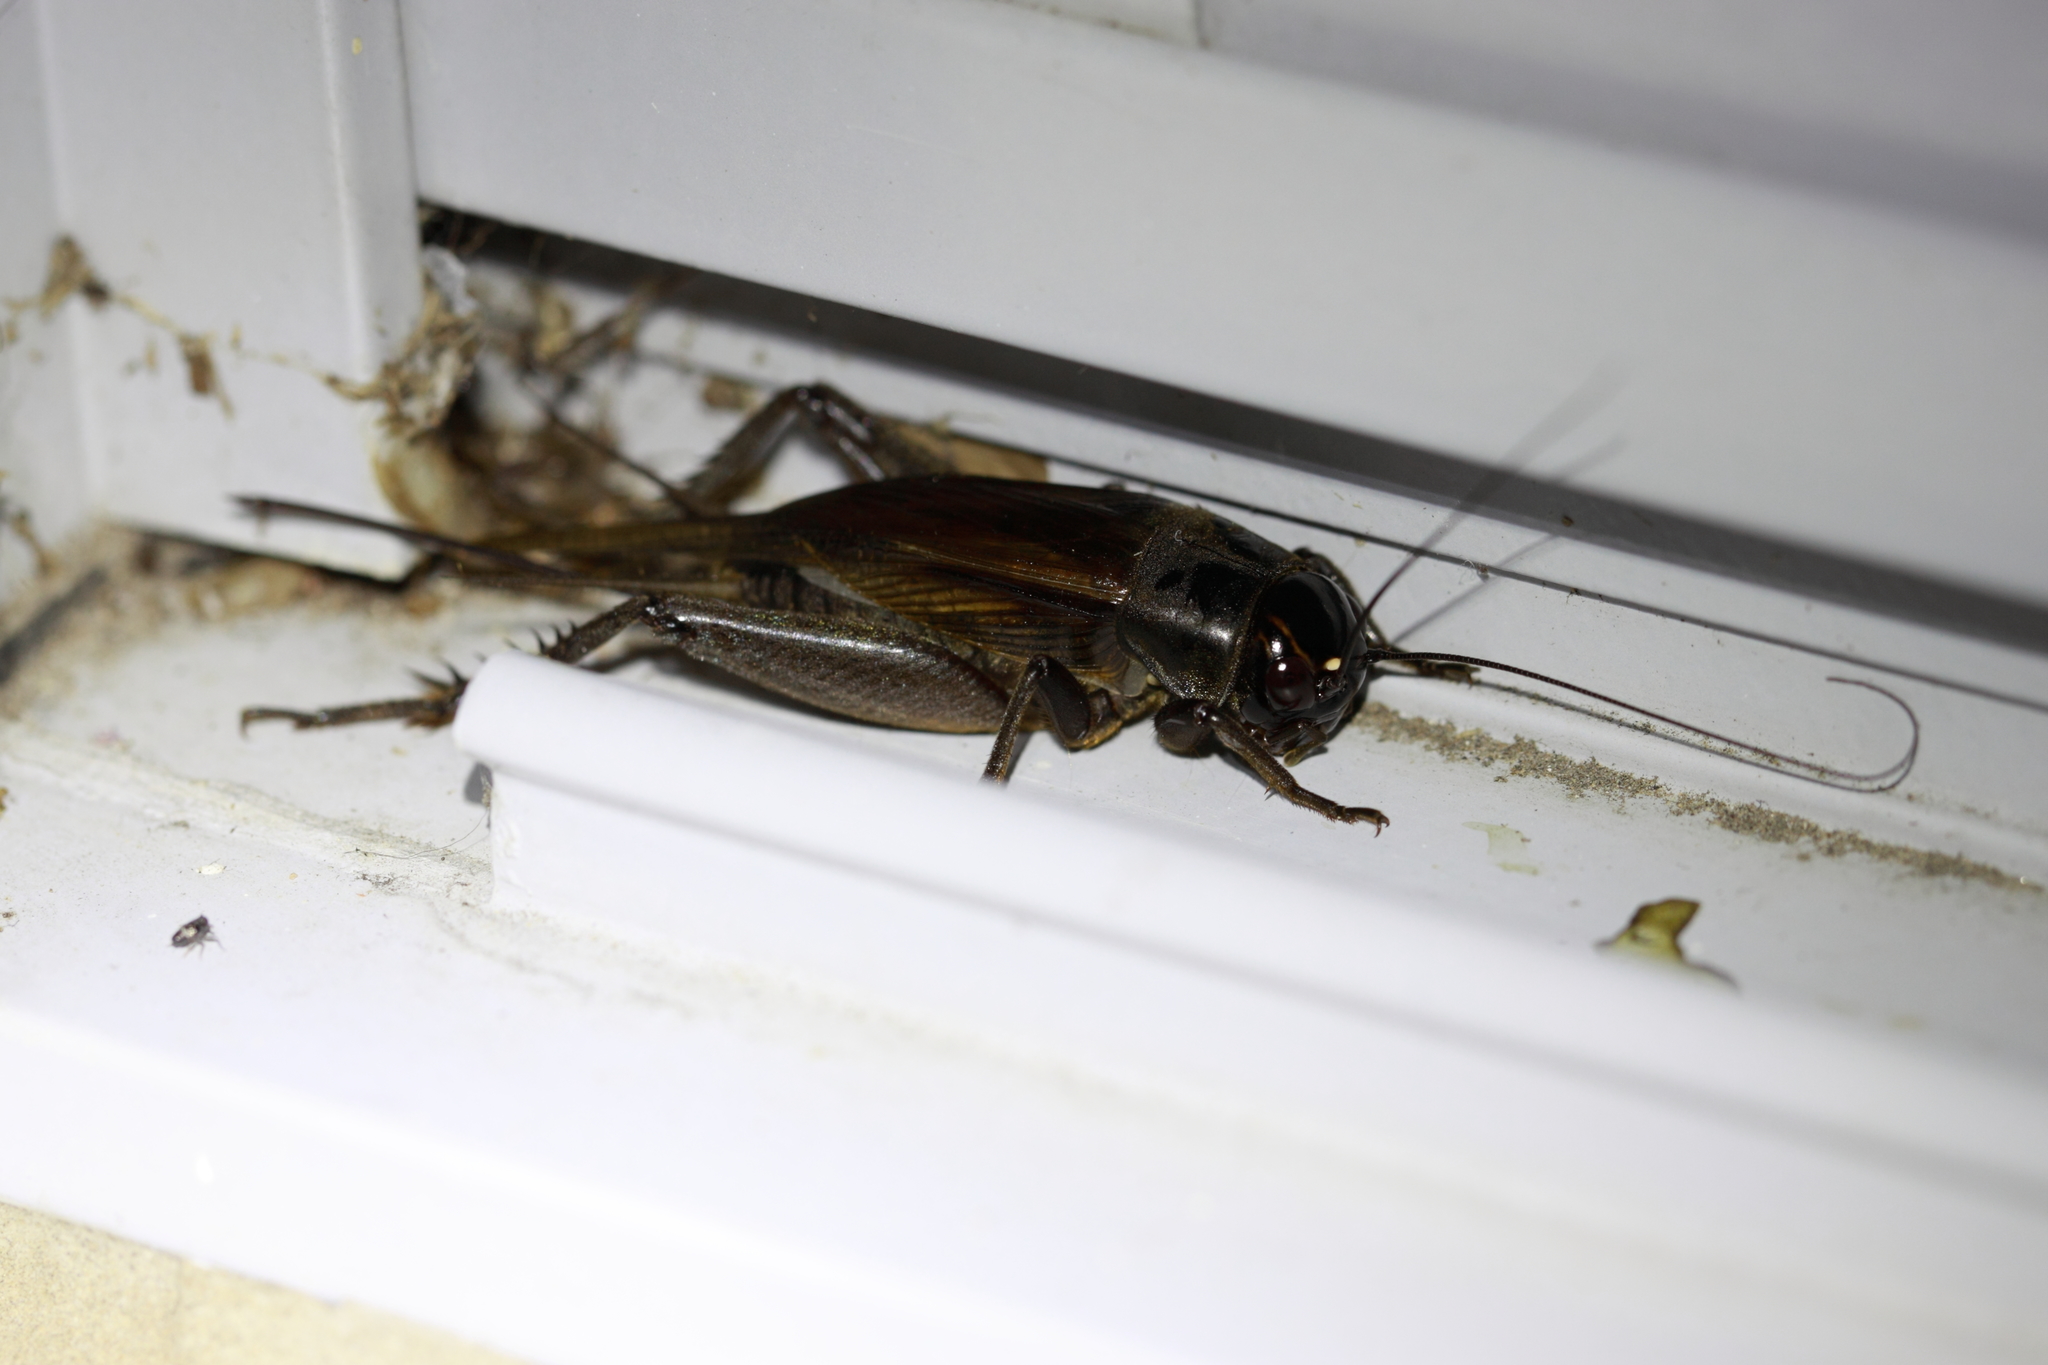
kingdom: Animalia
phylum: Arthropoda
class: Insecta
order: Orthoptera
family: Gryllidae
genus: Teleogryllus
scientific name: Teleogryllus commodus
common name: Black field cricket
